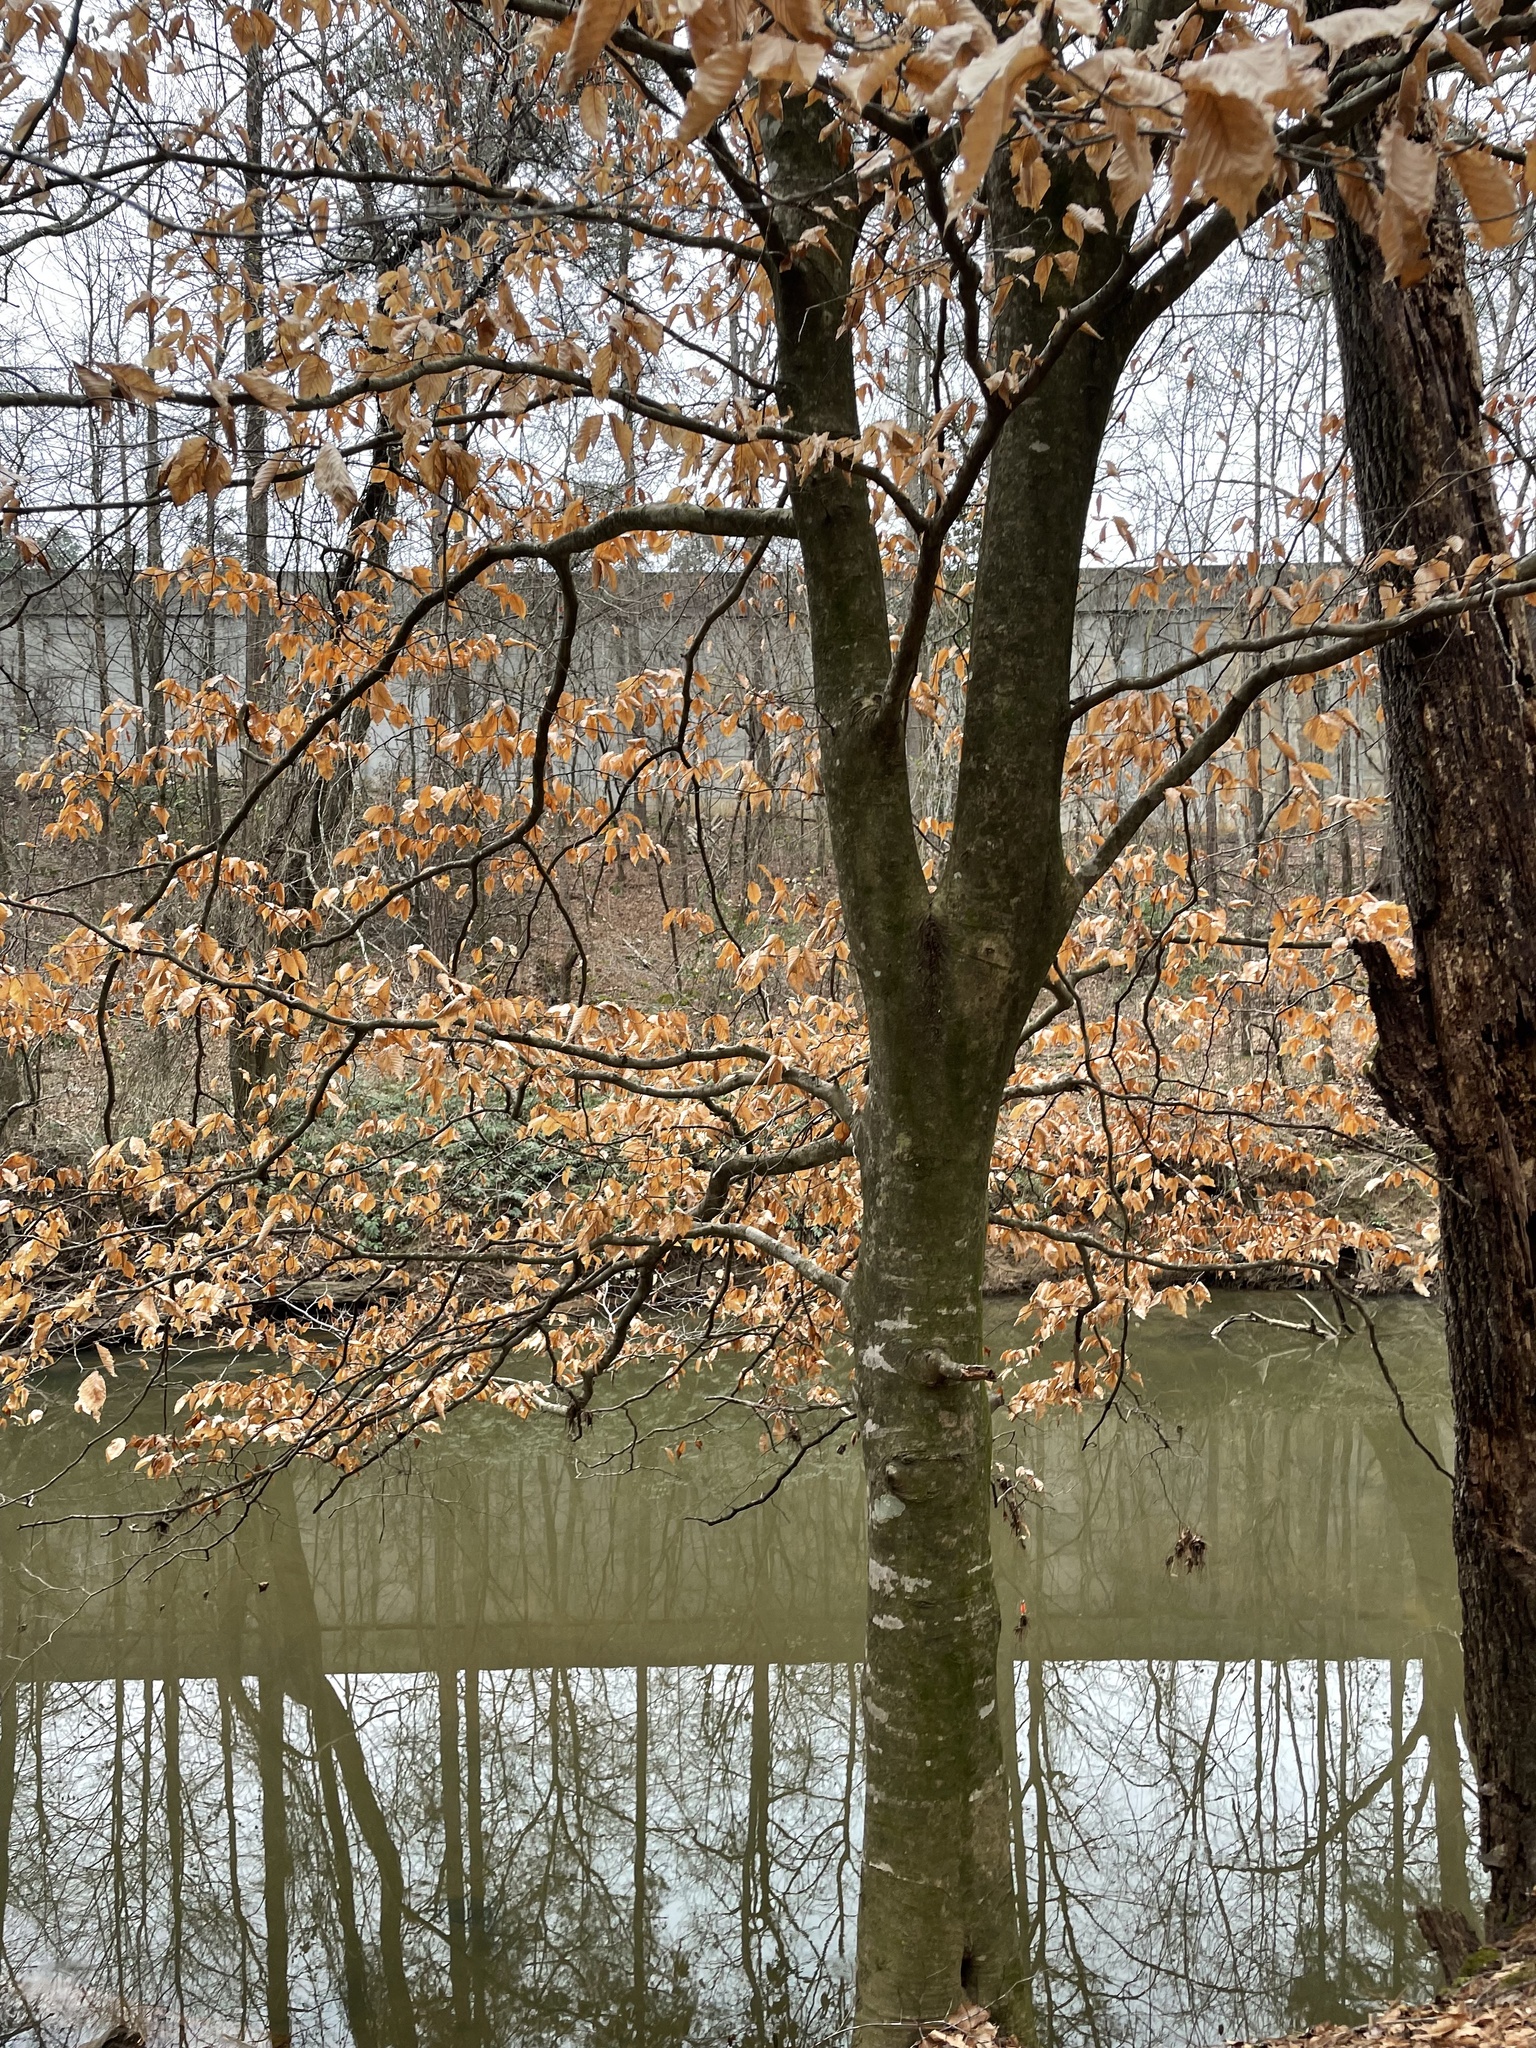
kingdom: Plantae
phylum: Tracheophyta
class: Magnoliopsida
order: Fagales
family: Fagaceae
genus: Fagus
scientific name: Fagus grandifolia
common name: American beech
